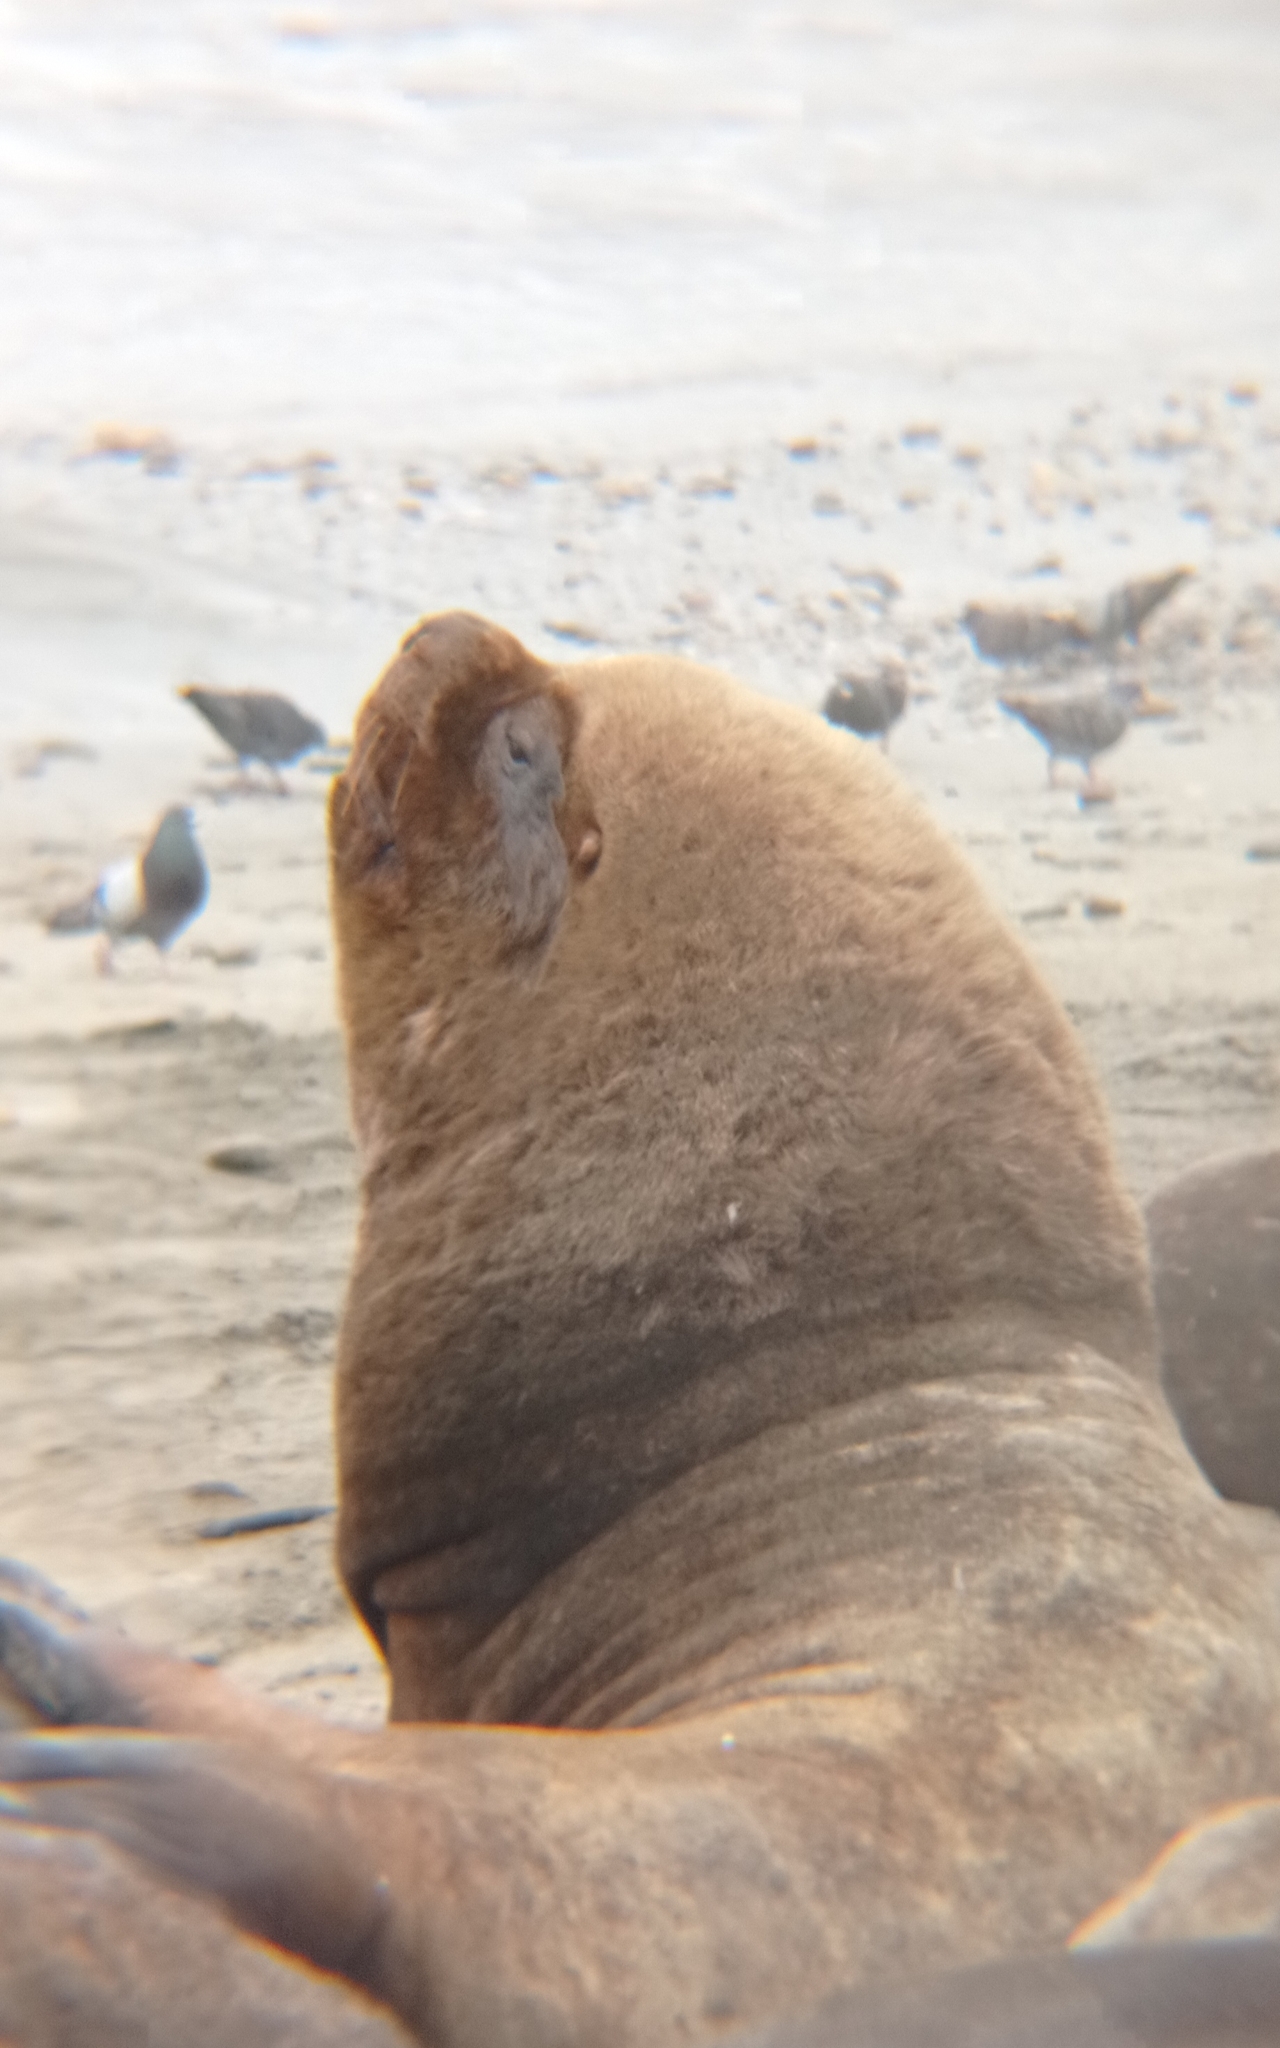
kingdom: Animalia
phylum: Chordata
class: Mammalia
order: Carnivora
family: Otariidae
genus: Otaria
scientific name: Otaria byronia
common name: South american sea lion
